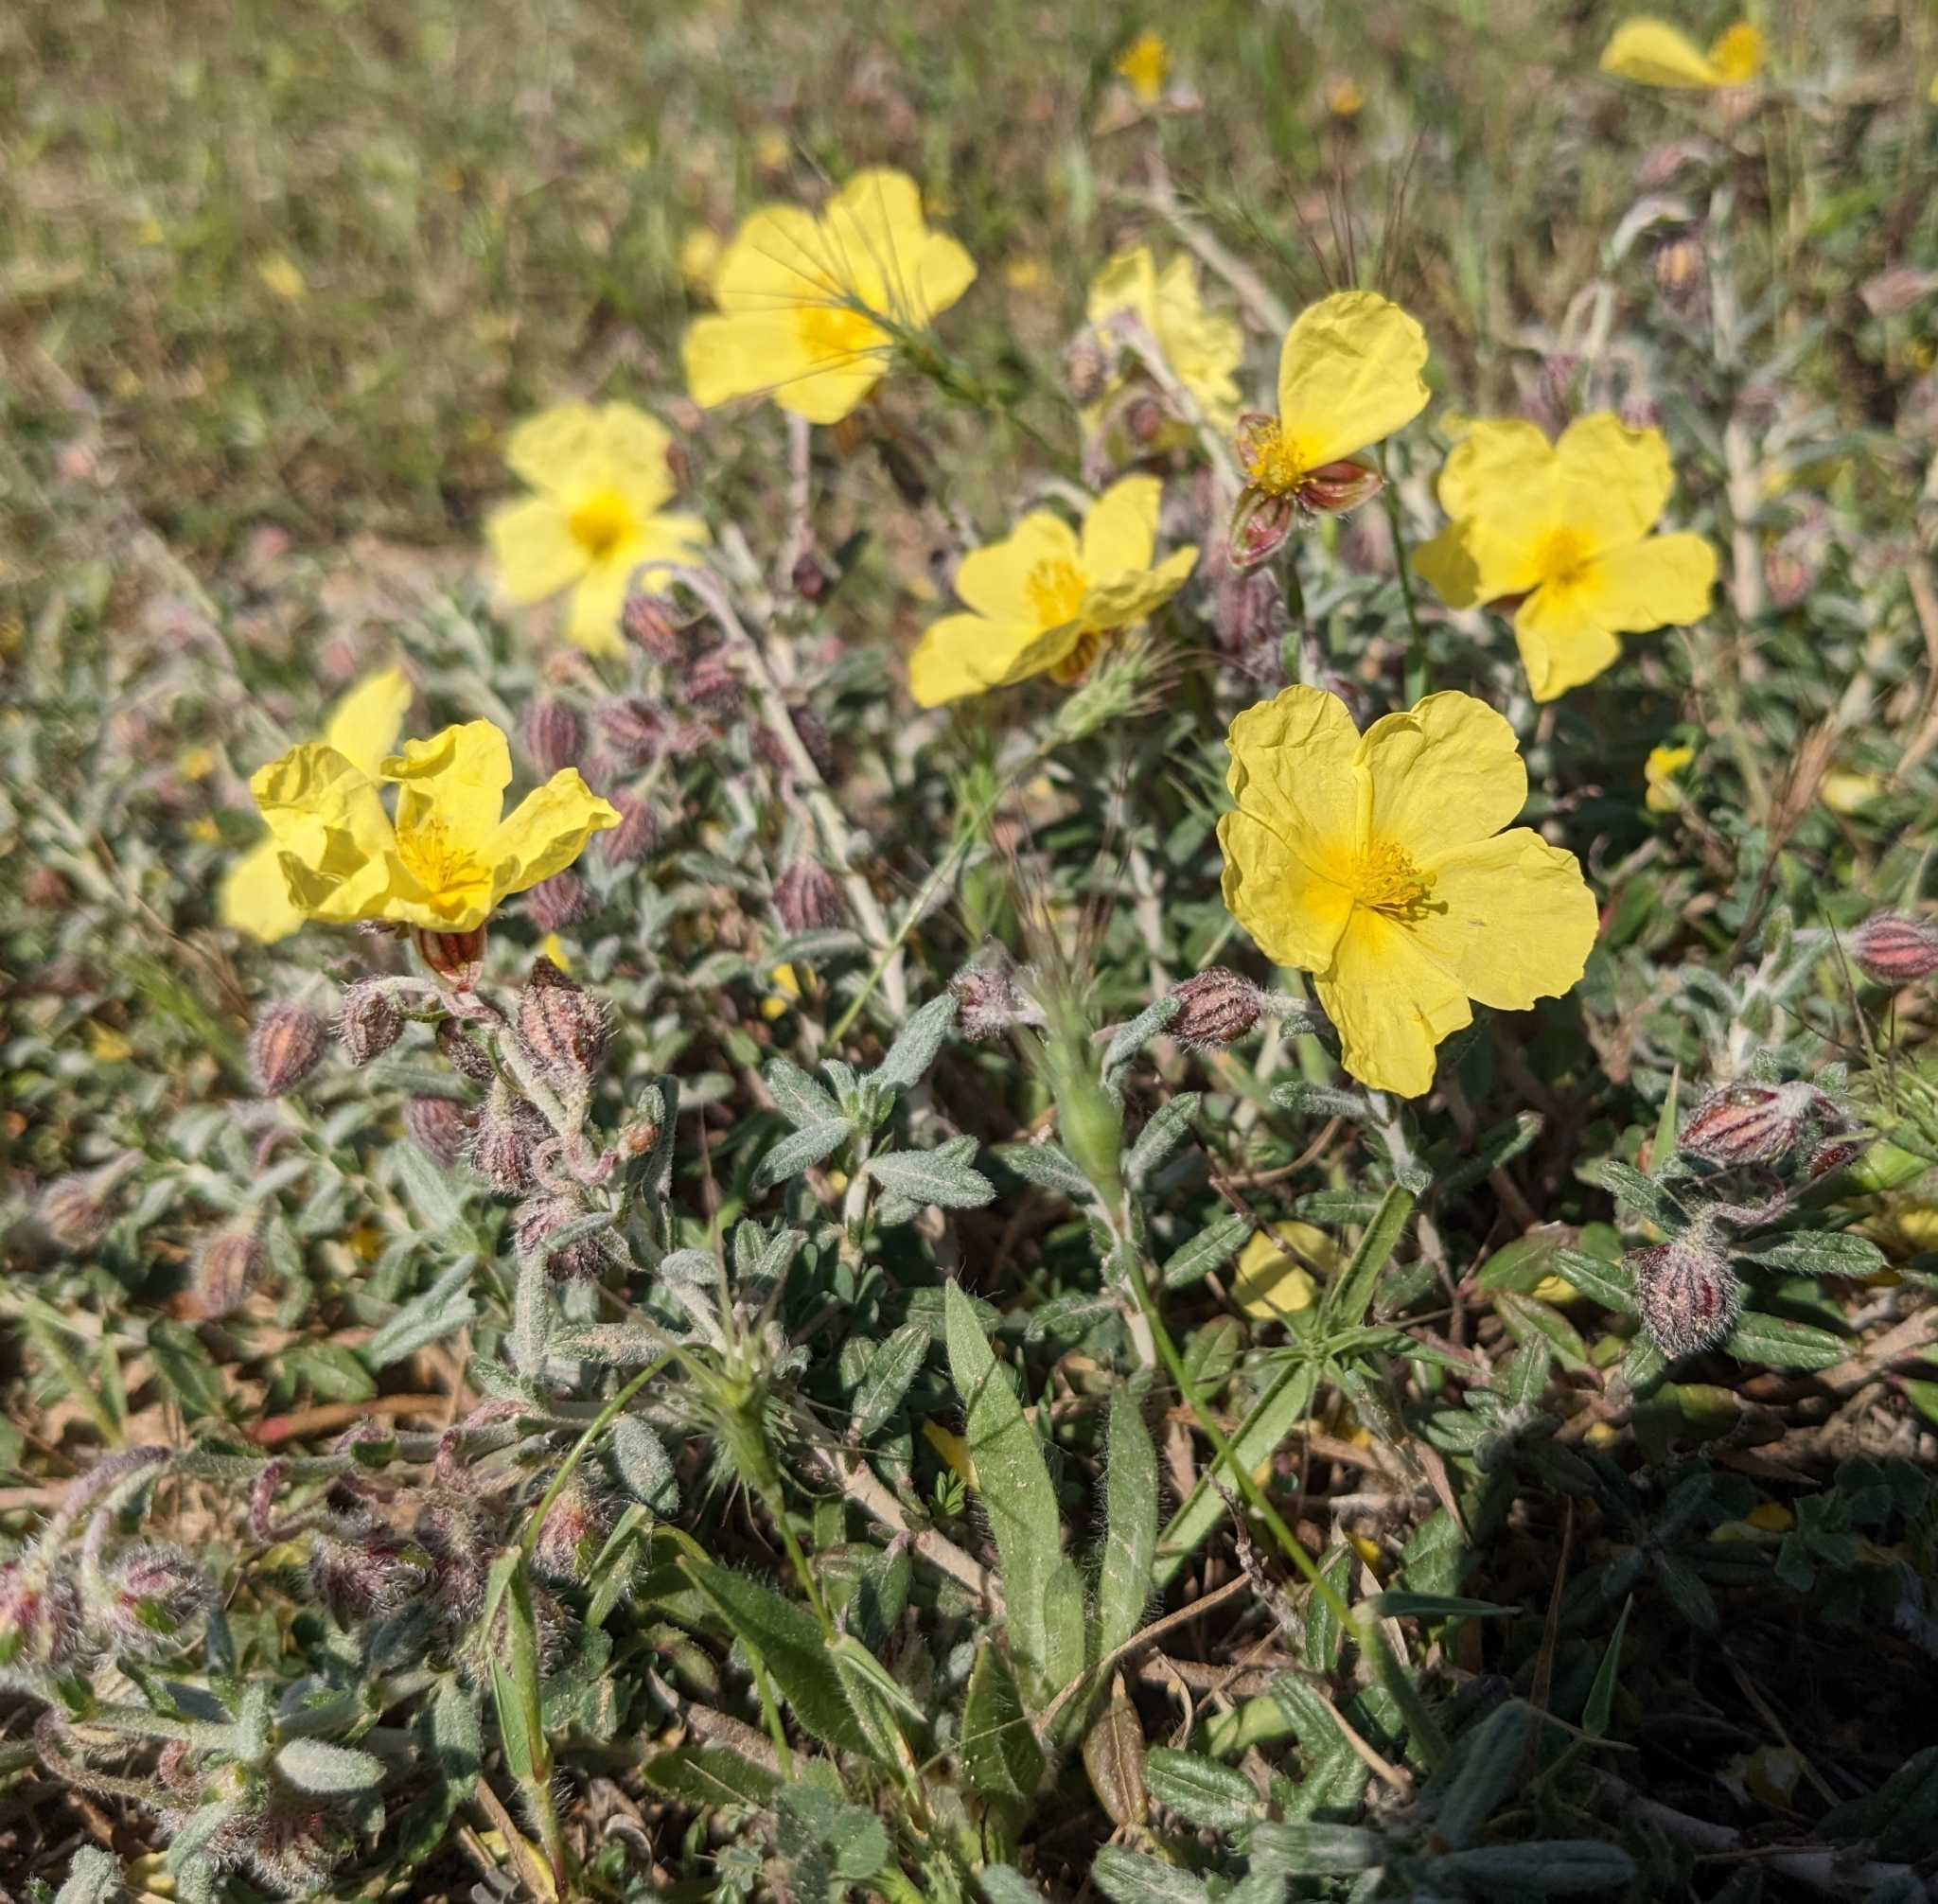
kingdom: Plantae
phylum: Tracheophyta
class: Magnoliopsida
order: Malvales
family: Cistaceae
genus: Helianthemum
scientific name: Helianthemum obtusifolium
